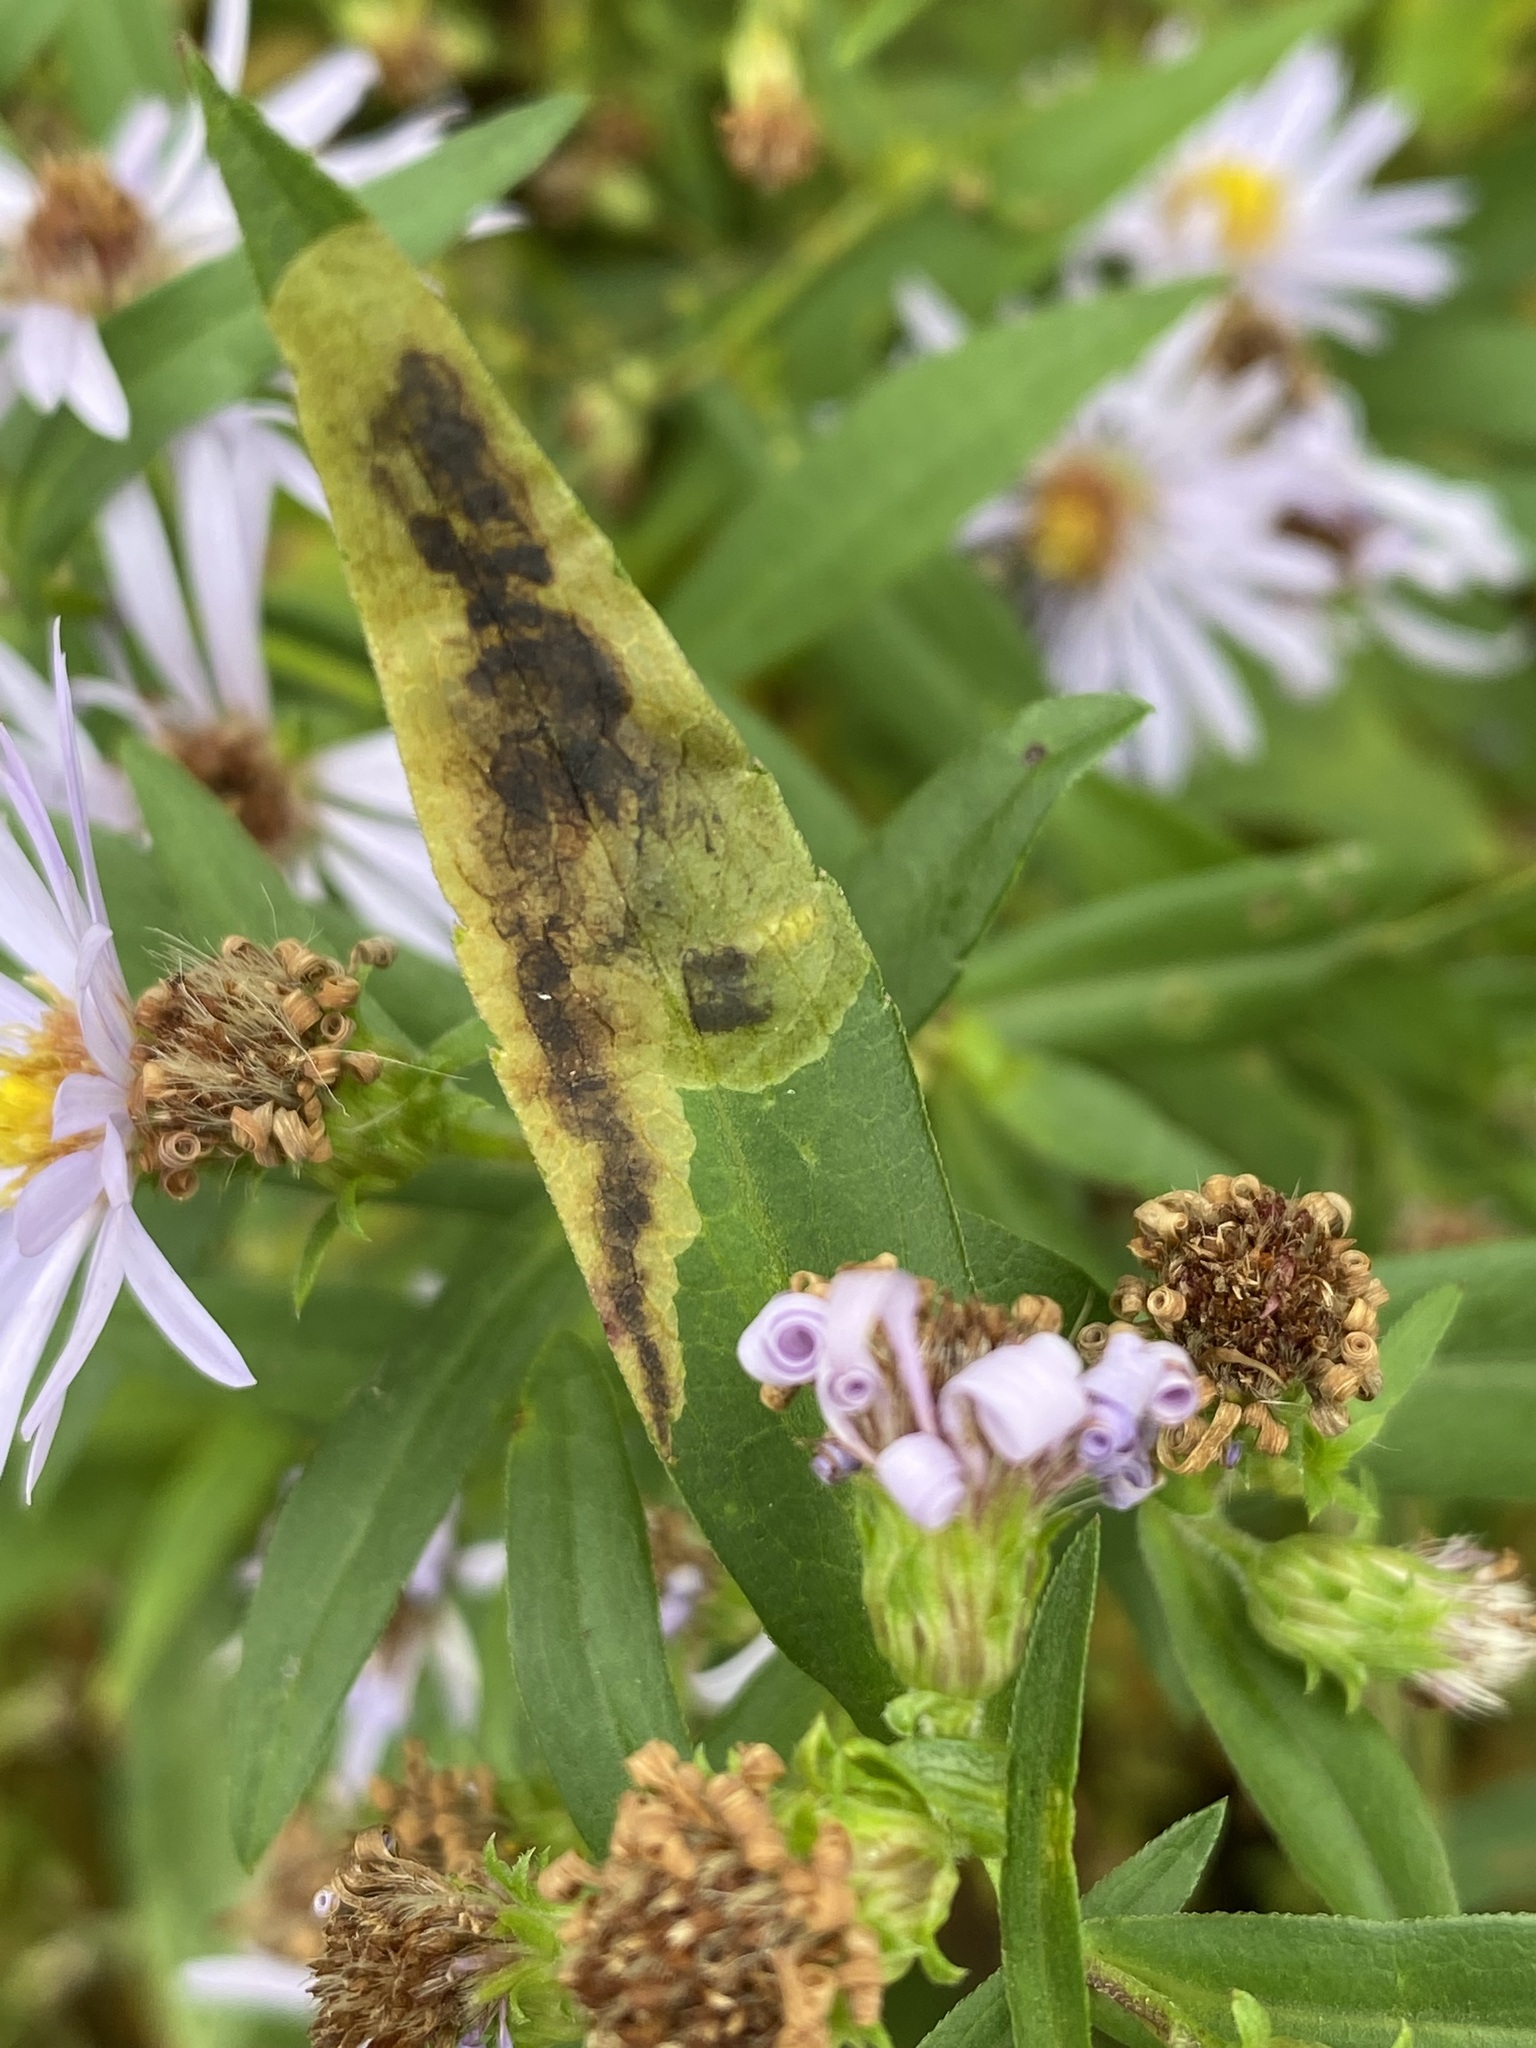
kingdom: Animalia
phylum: Arthropoda
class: Insecta
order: Diptera
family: Agromyzidae
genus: Nemorimyza
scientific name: Nemorimyza posticata
